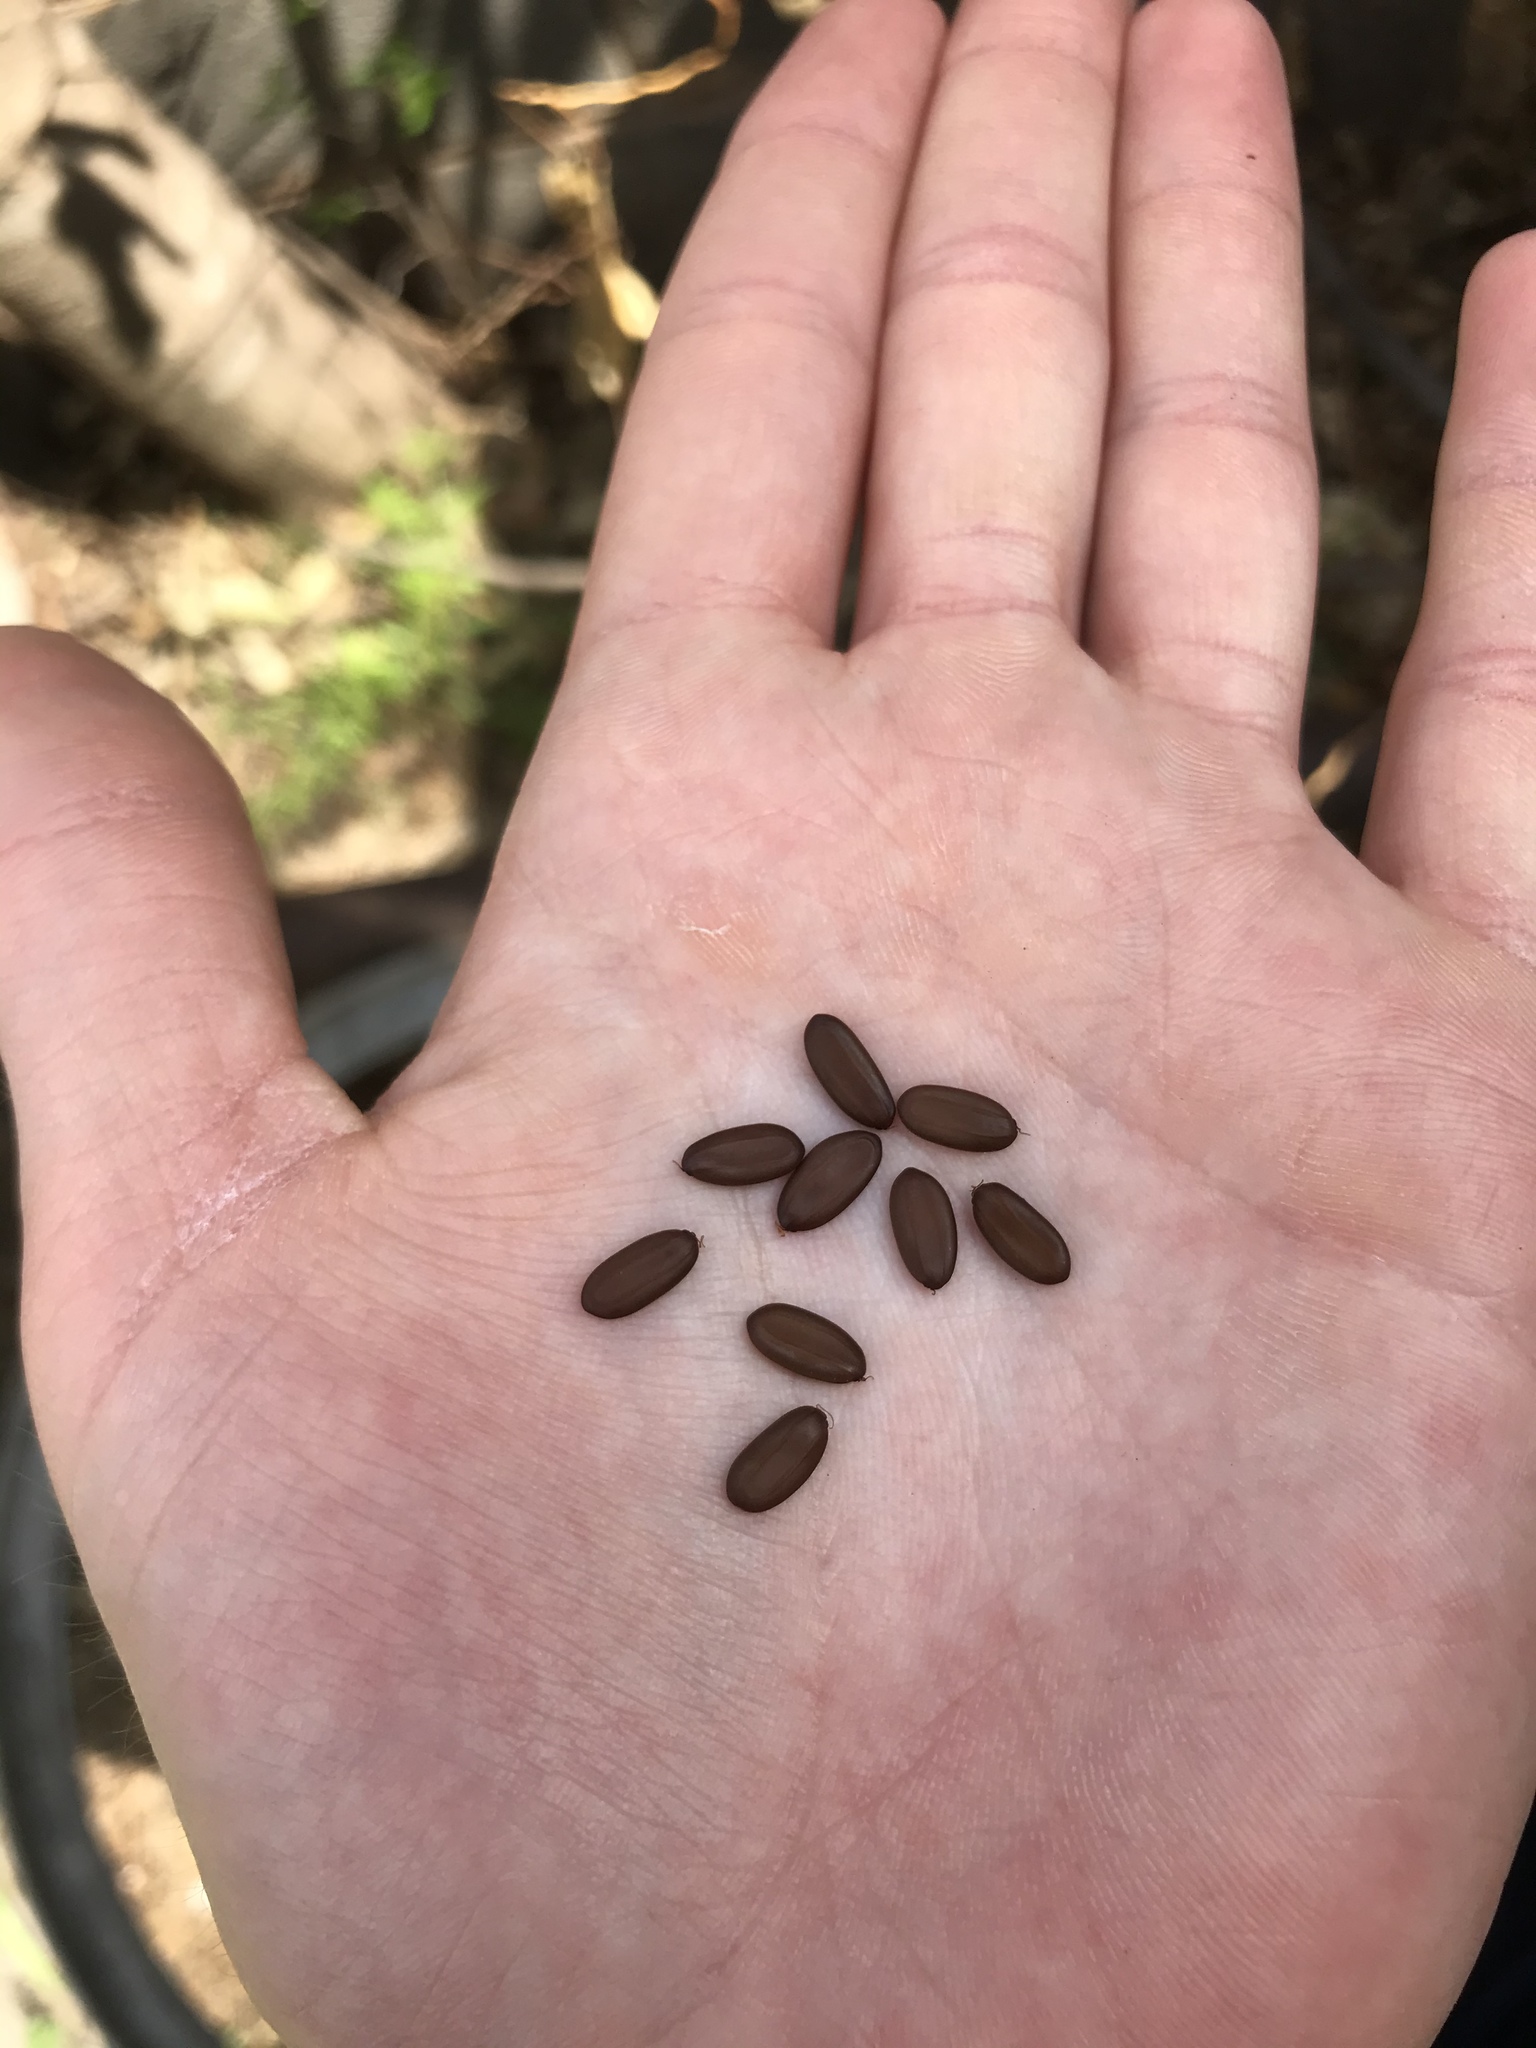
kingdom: Plantae
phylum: Tracheophyta
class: Magnoliopsida
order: Fabales
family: Fabaceae
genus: Albizia
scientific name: Albizia julibrissin
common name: Silktree
